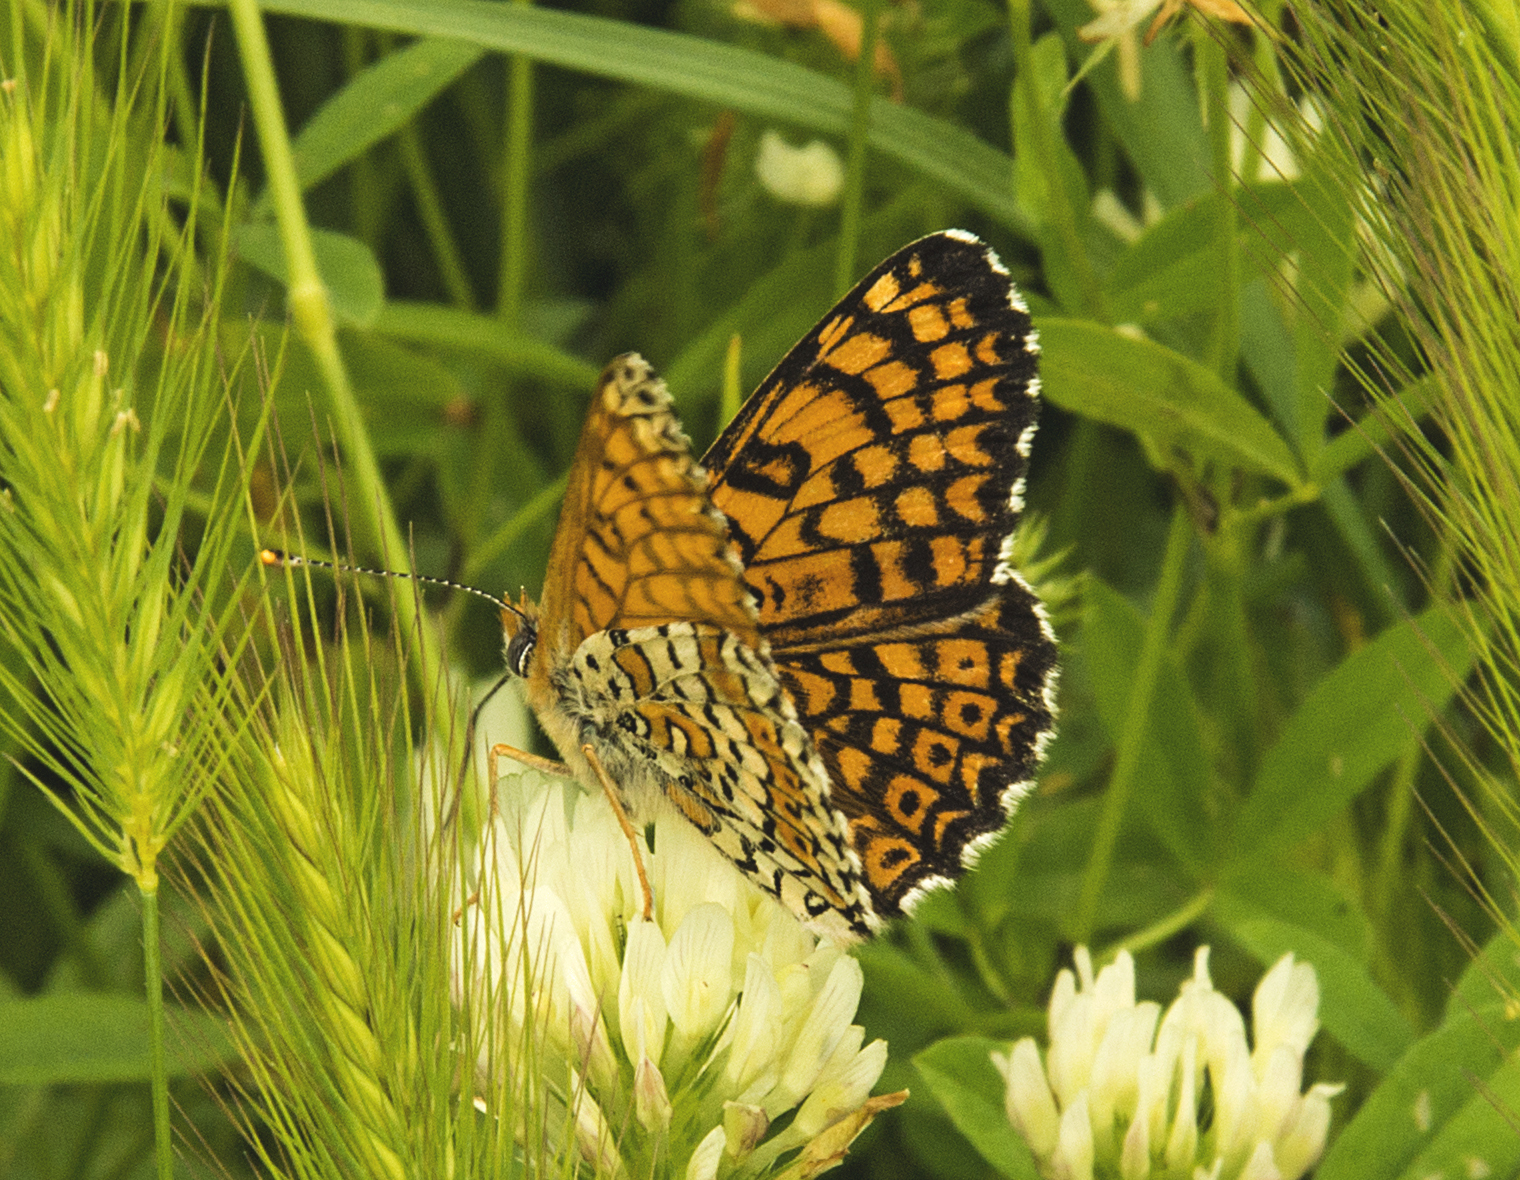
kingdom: Animalia
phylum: Arthropoda
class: Insecta
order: Lepidoptera
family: Nymphalidae
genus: Melitaea
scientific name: Melitaea cinxia
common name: Glanville fritillary
